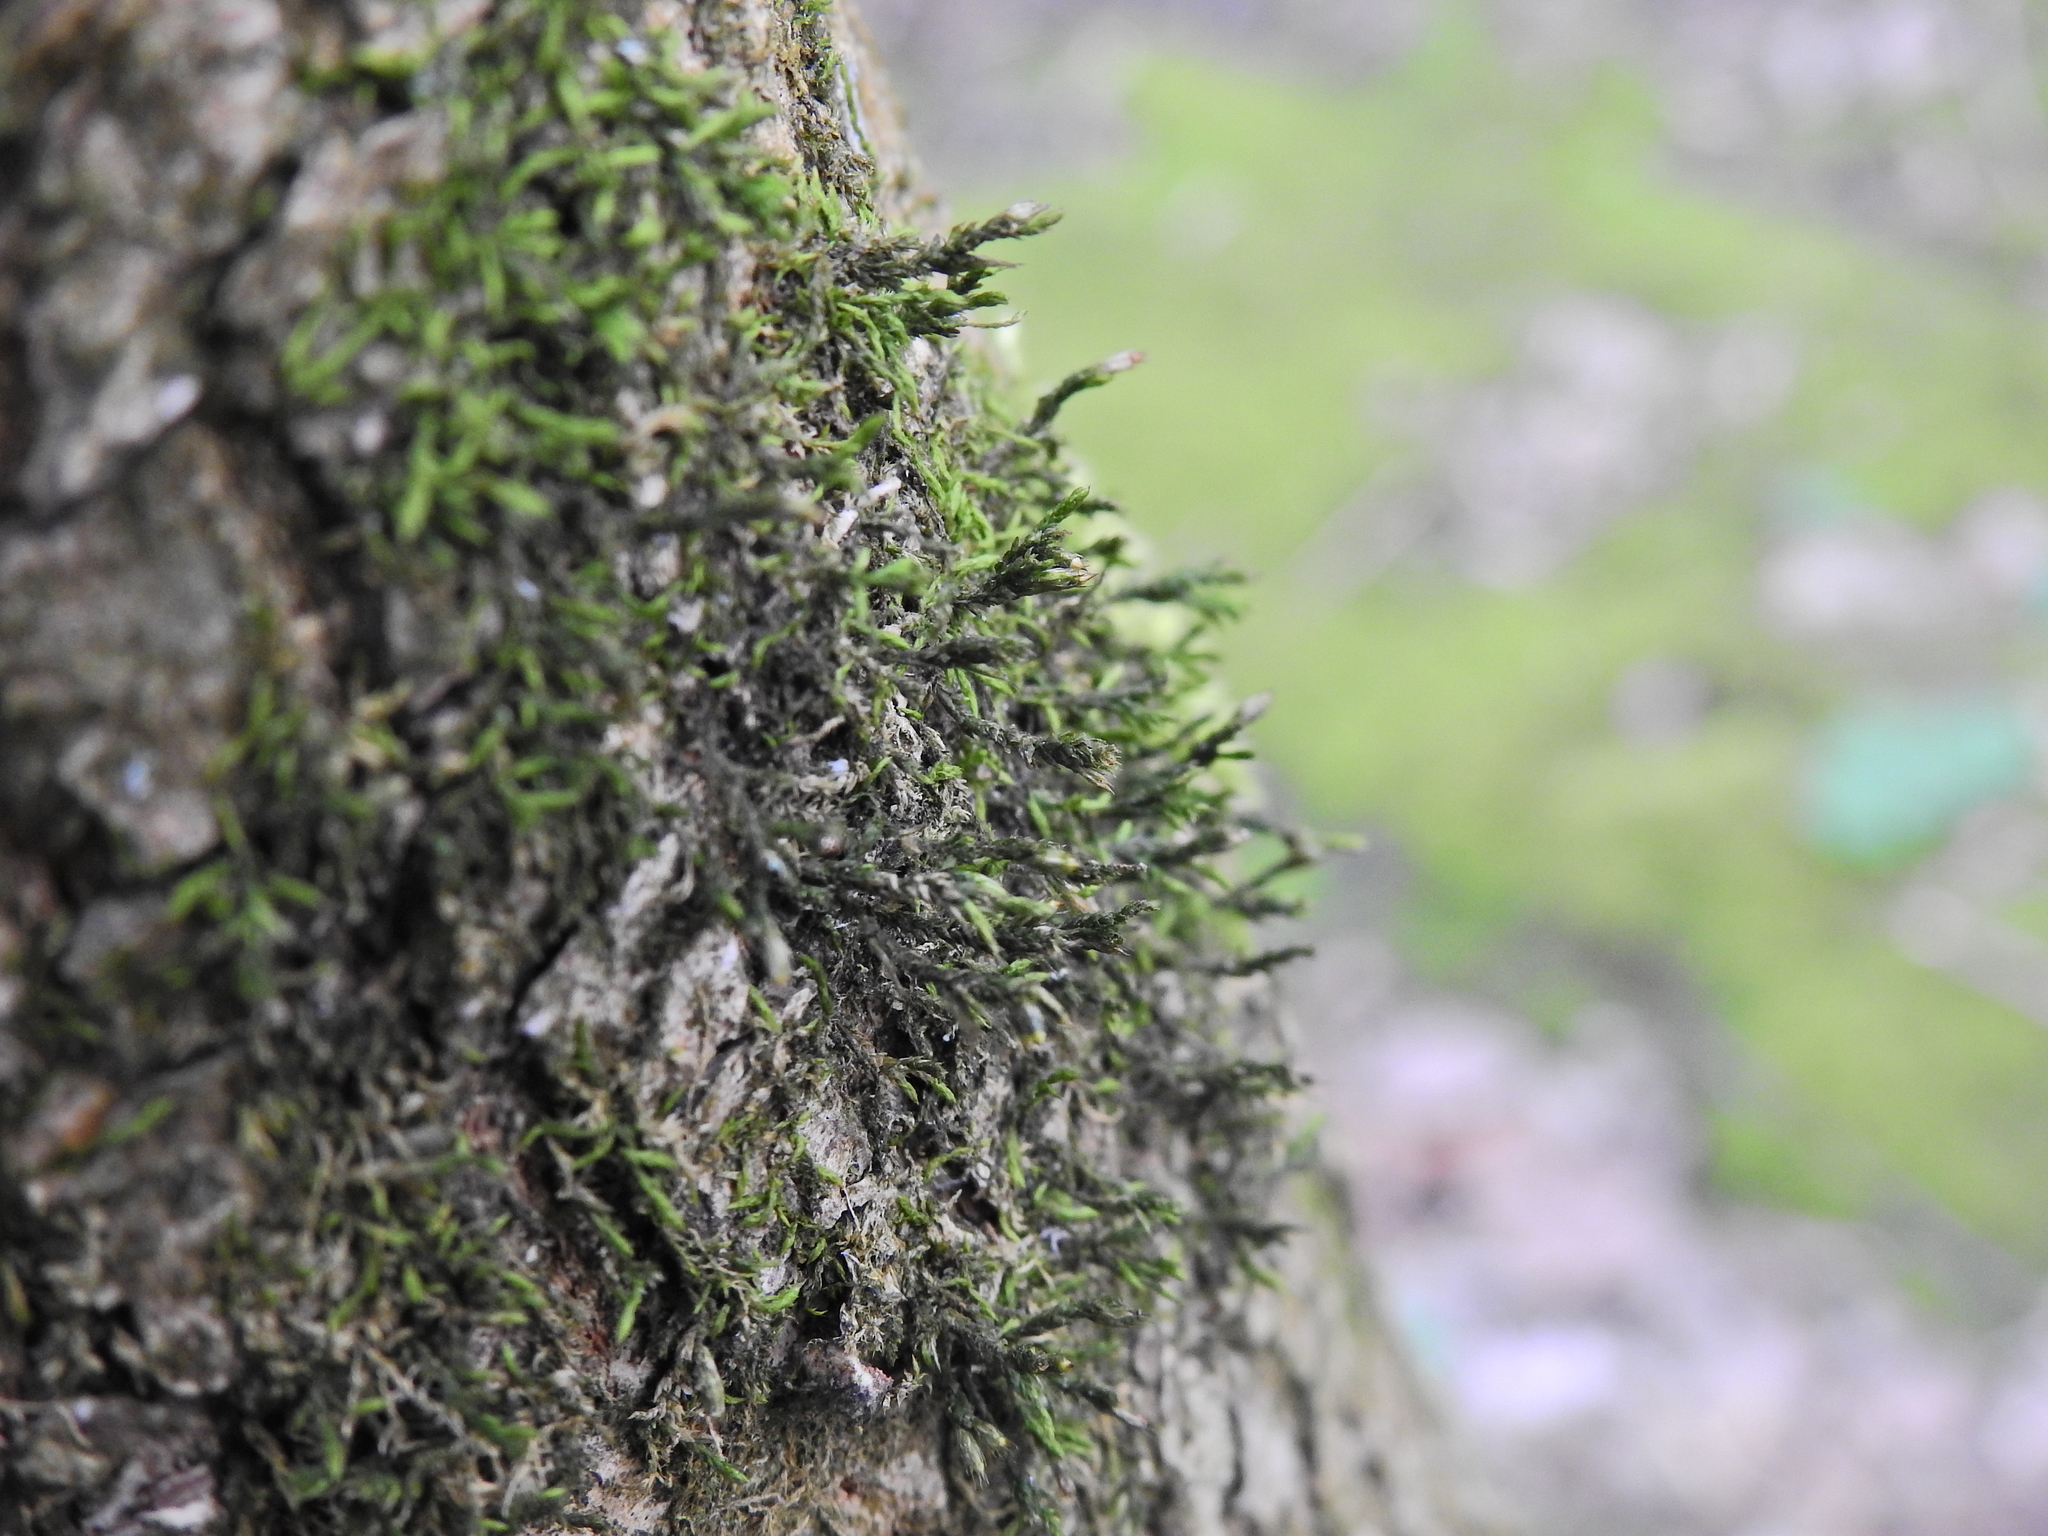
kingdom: Plantae
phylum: Bryophyta
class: Bryopsida
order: Hypnales
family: Cryphaeaceae
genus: Cryphaea
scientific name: Cryphaea heteromalla
